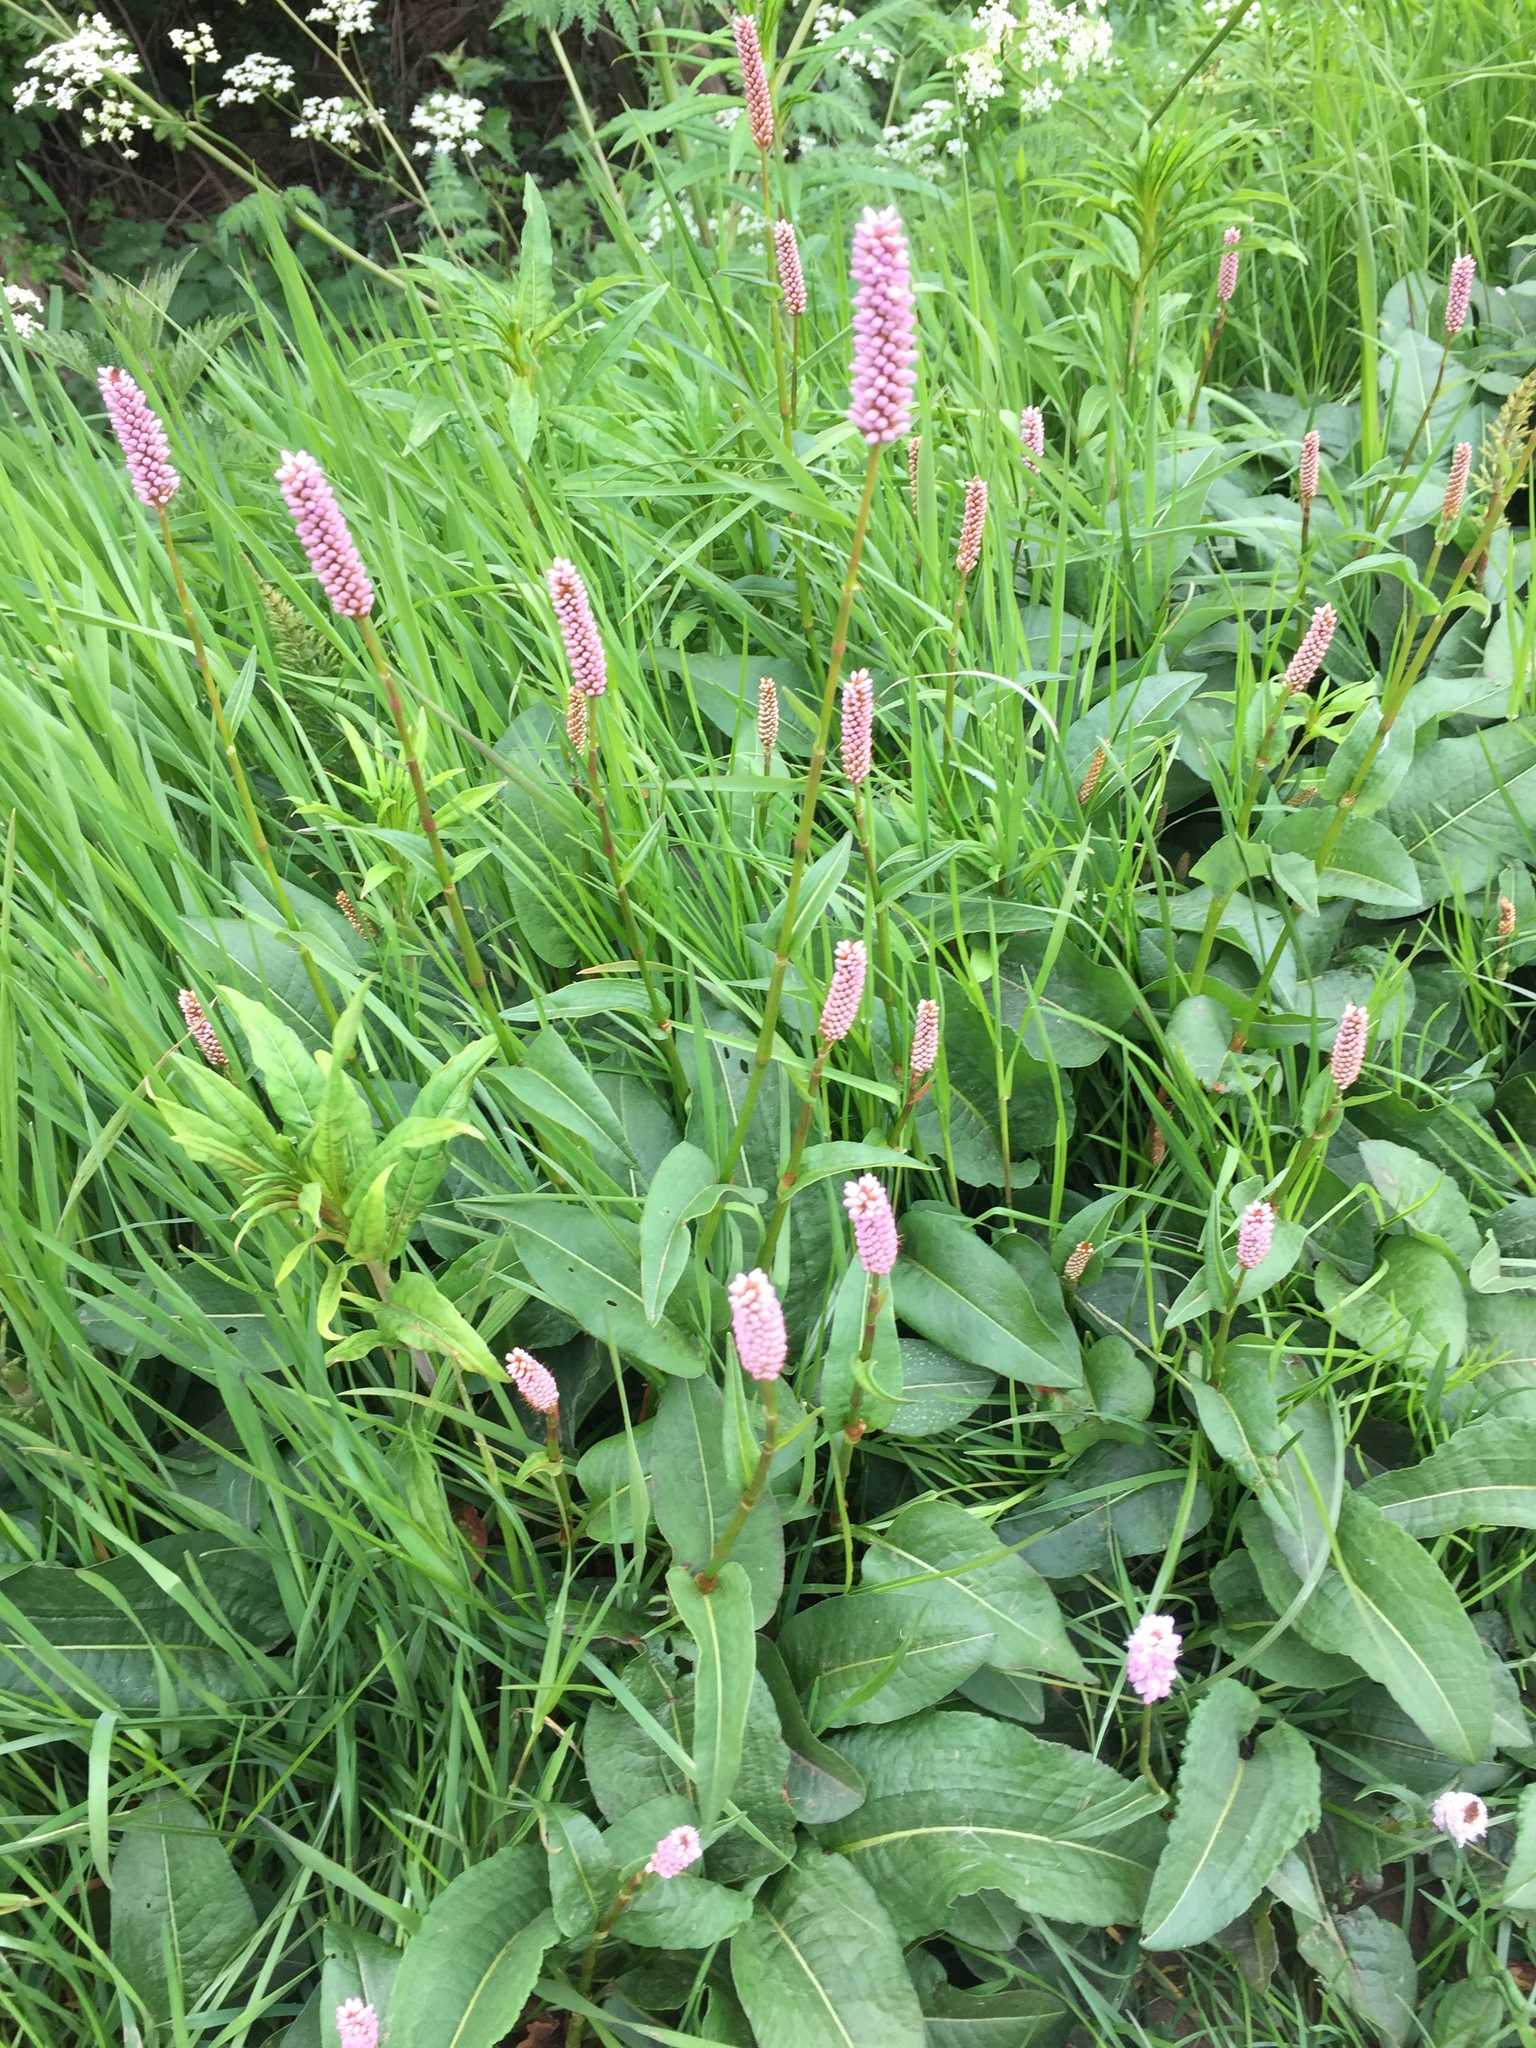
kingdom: Plantae
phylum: Tracheophyta
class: Magnoliopsida
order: Caryophyllales
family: Polygonaceae
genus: Bistorta
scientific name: Bistorta officinalis
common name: Common bistort
